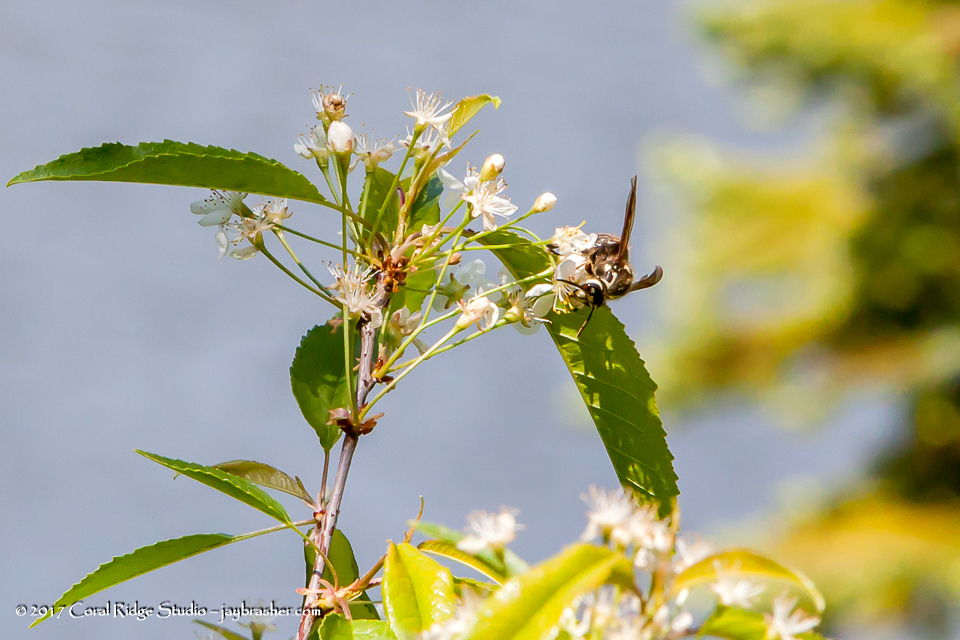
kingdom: Animalia
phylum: Arthropoda
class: Insecta
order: Hymenoptera
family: Vespidae
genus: Dolichovespula
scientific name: Dolichovespula maculata
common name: Bald-faced hornet
